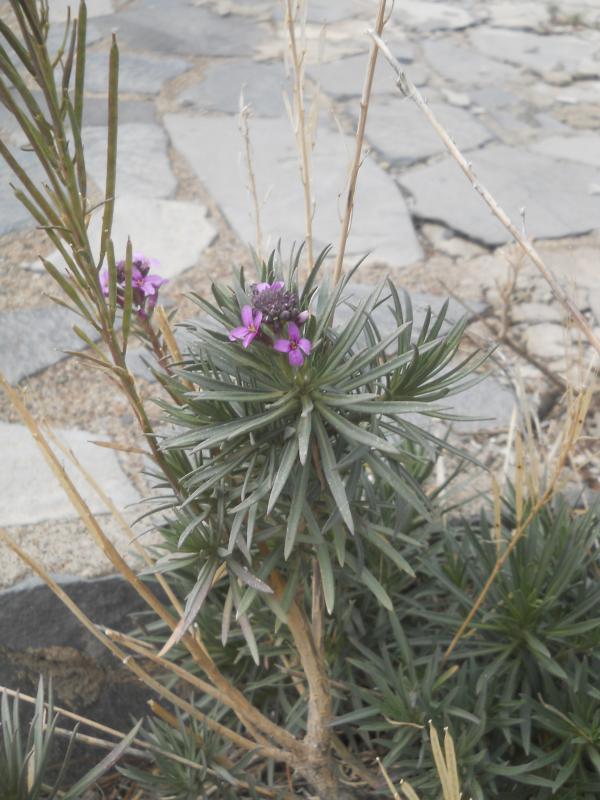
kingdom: Plantae
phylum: Tracheophyta
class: Magnoliopsida
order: Brassicales
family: Brassicaceae
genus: Erysimum
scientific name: Erysimum scoparium
